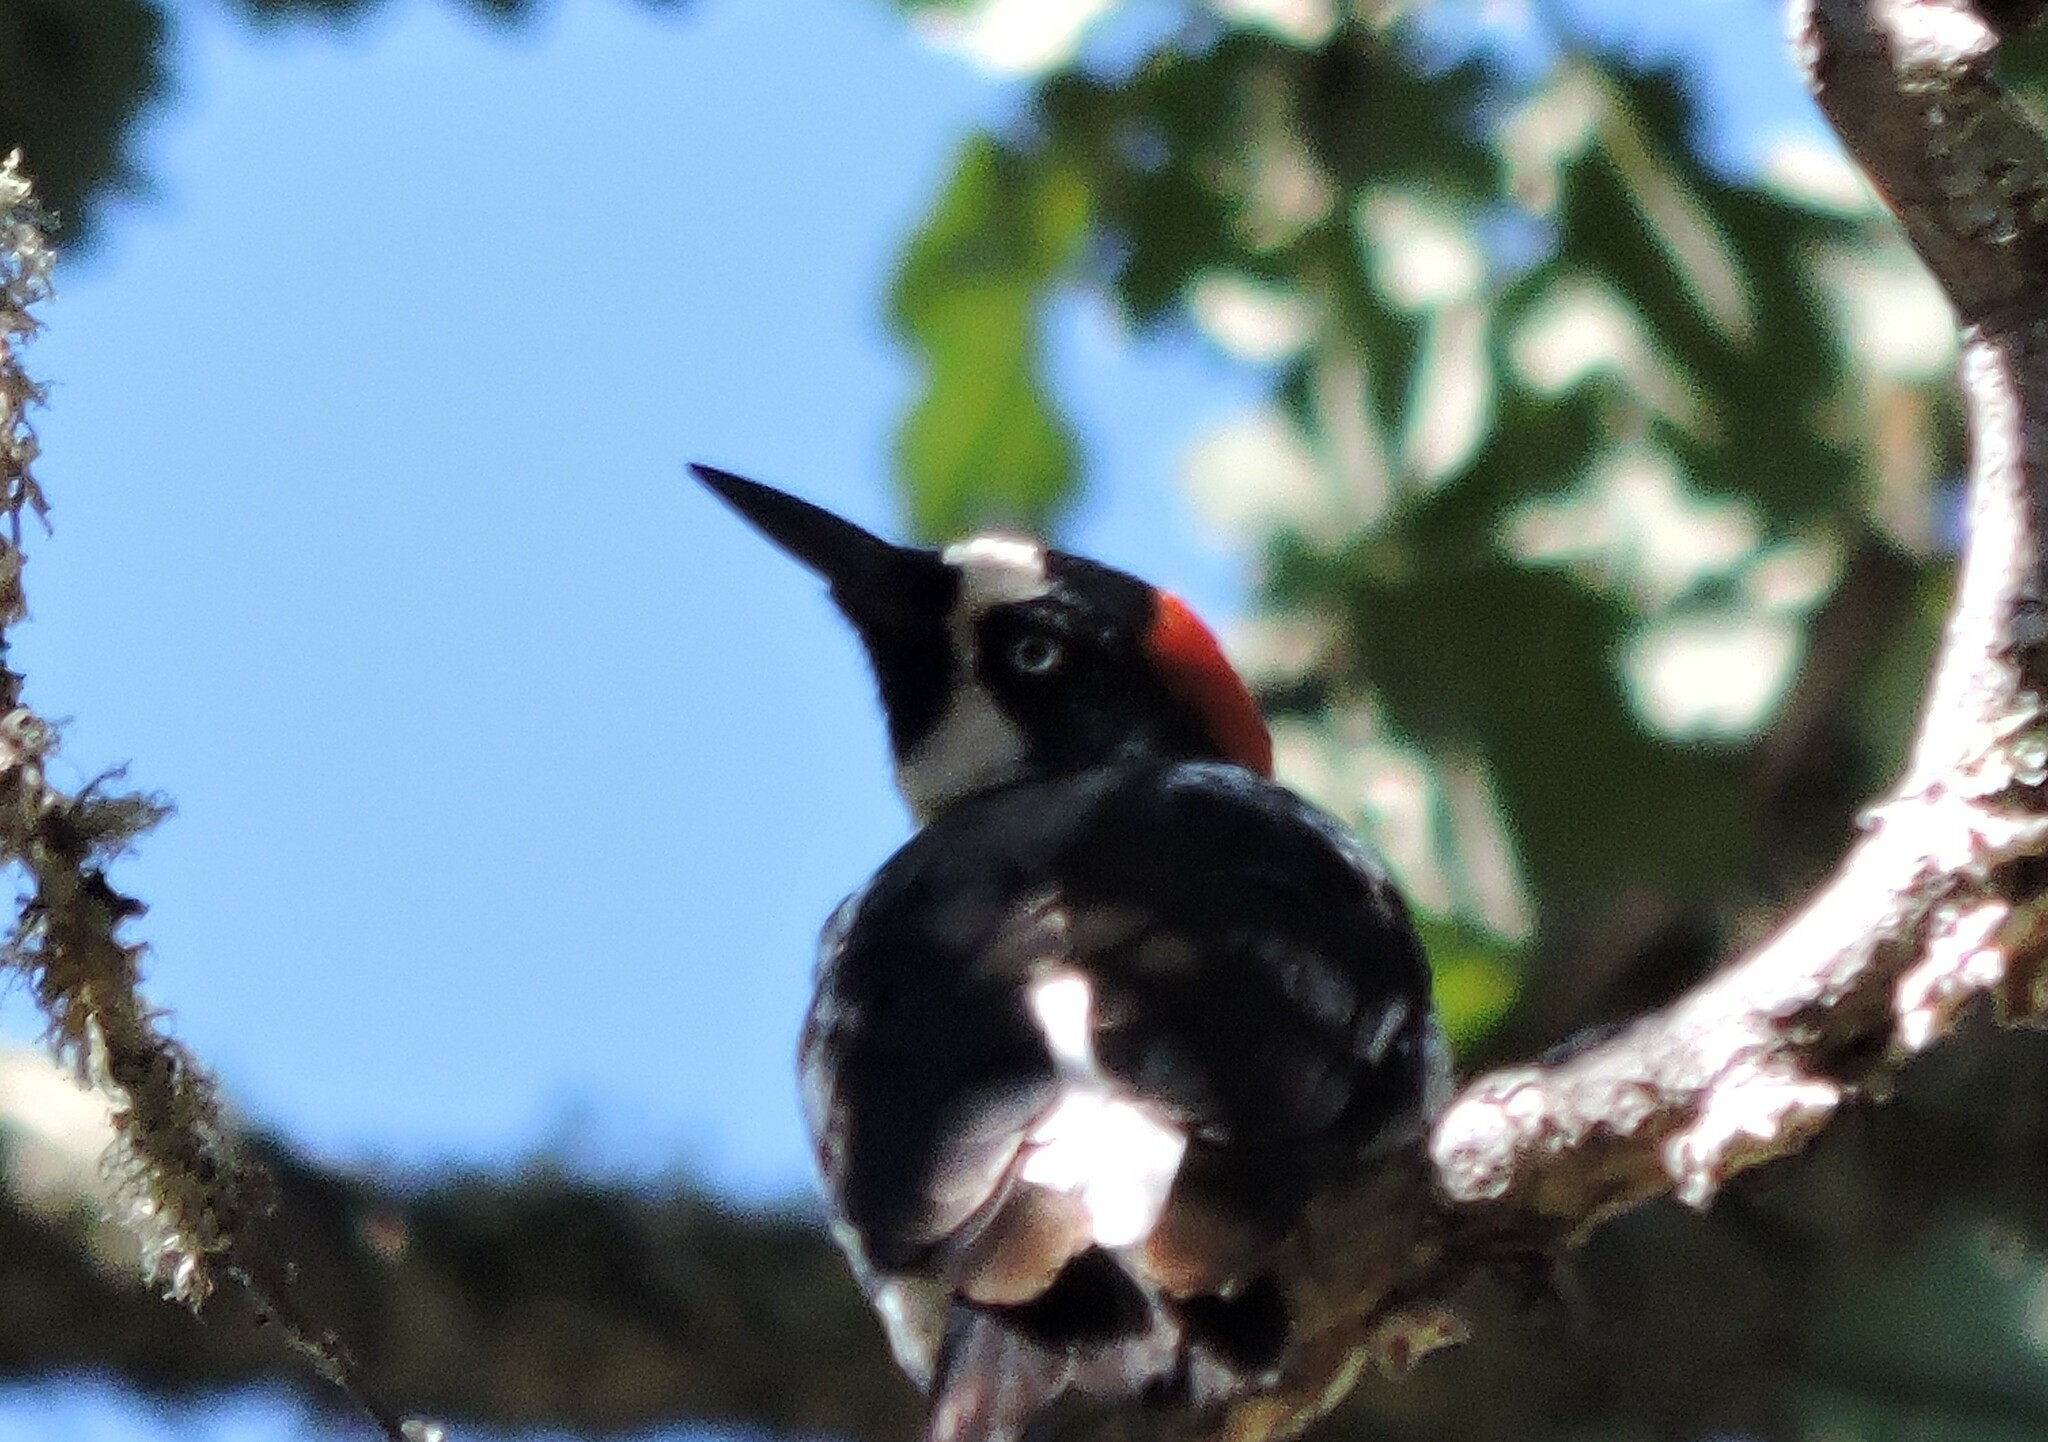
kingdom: Animalia
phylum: Chordata
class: Aves
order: Piciformes
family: Picidae
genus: Melanerpes
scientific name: Melanerpes formicivorus
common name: Acorn woodpecker
